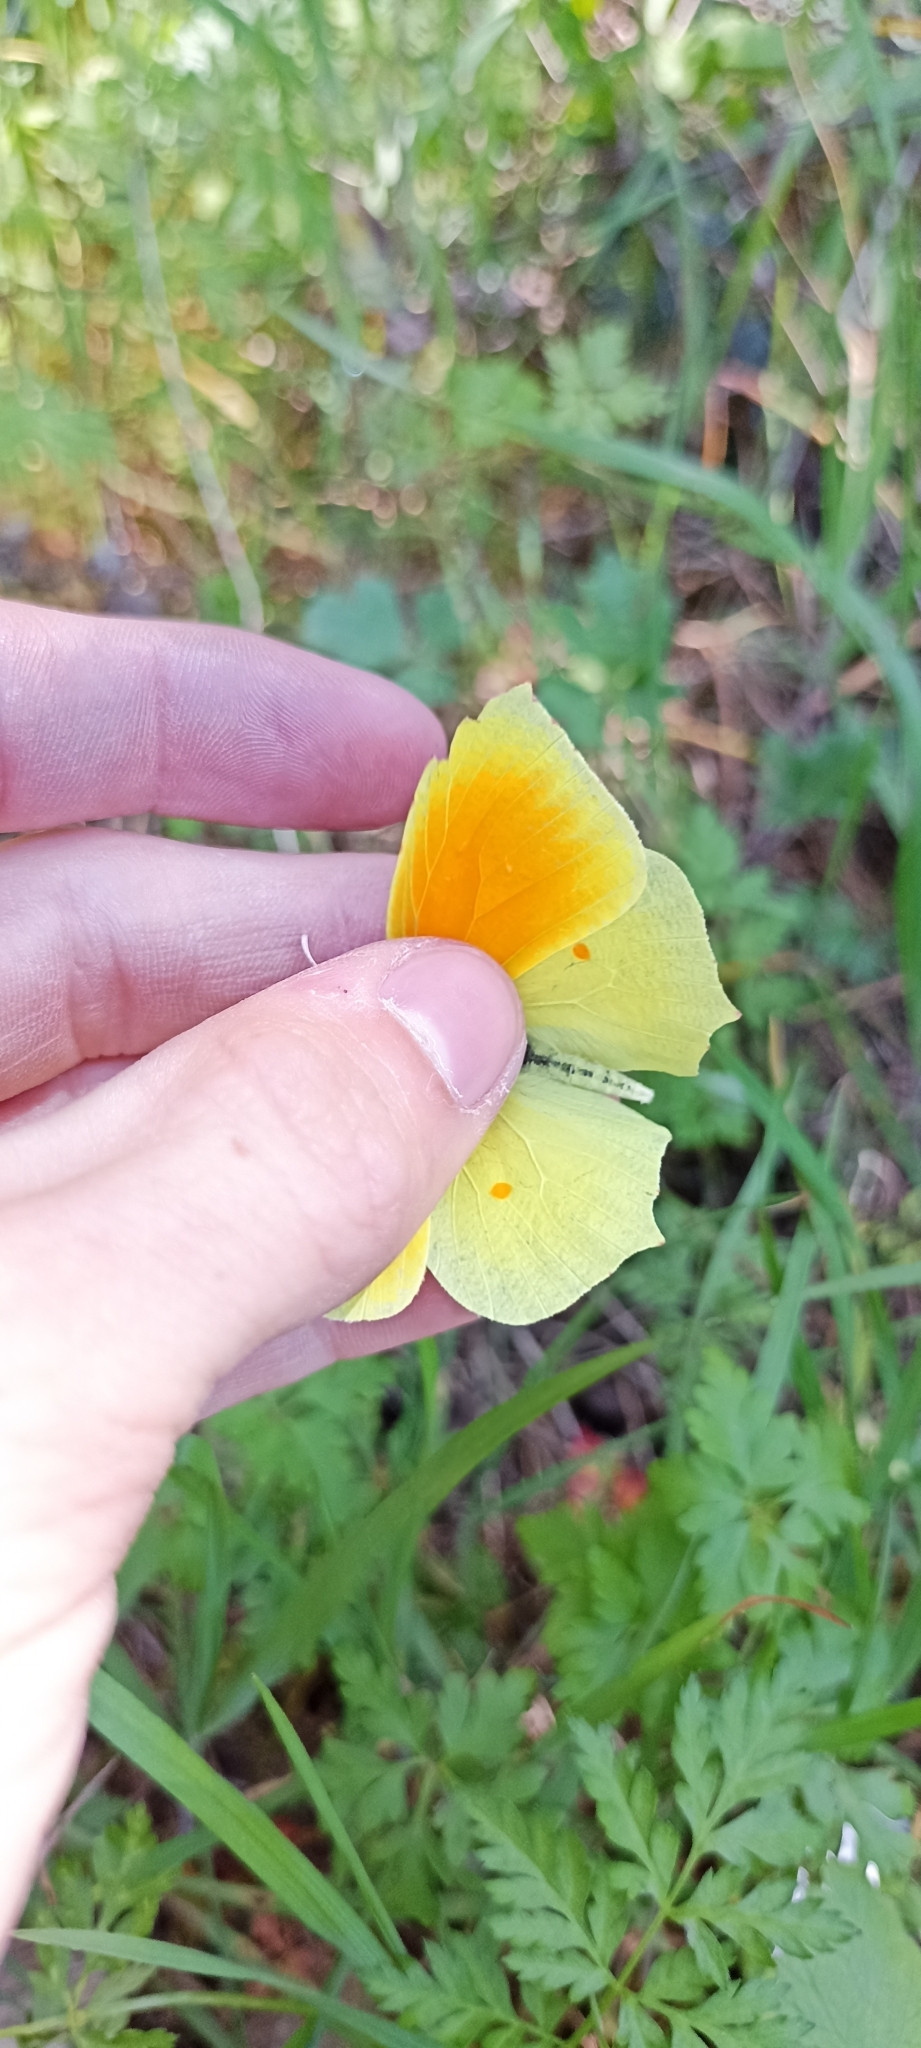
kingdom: Animalia
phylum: Arthropoda
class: Insecta
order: Lepidoptera
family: Pieridae
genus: Gonepteryx
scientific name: Gonepteryx cleopatra
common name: Cleopatra
